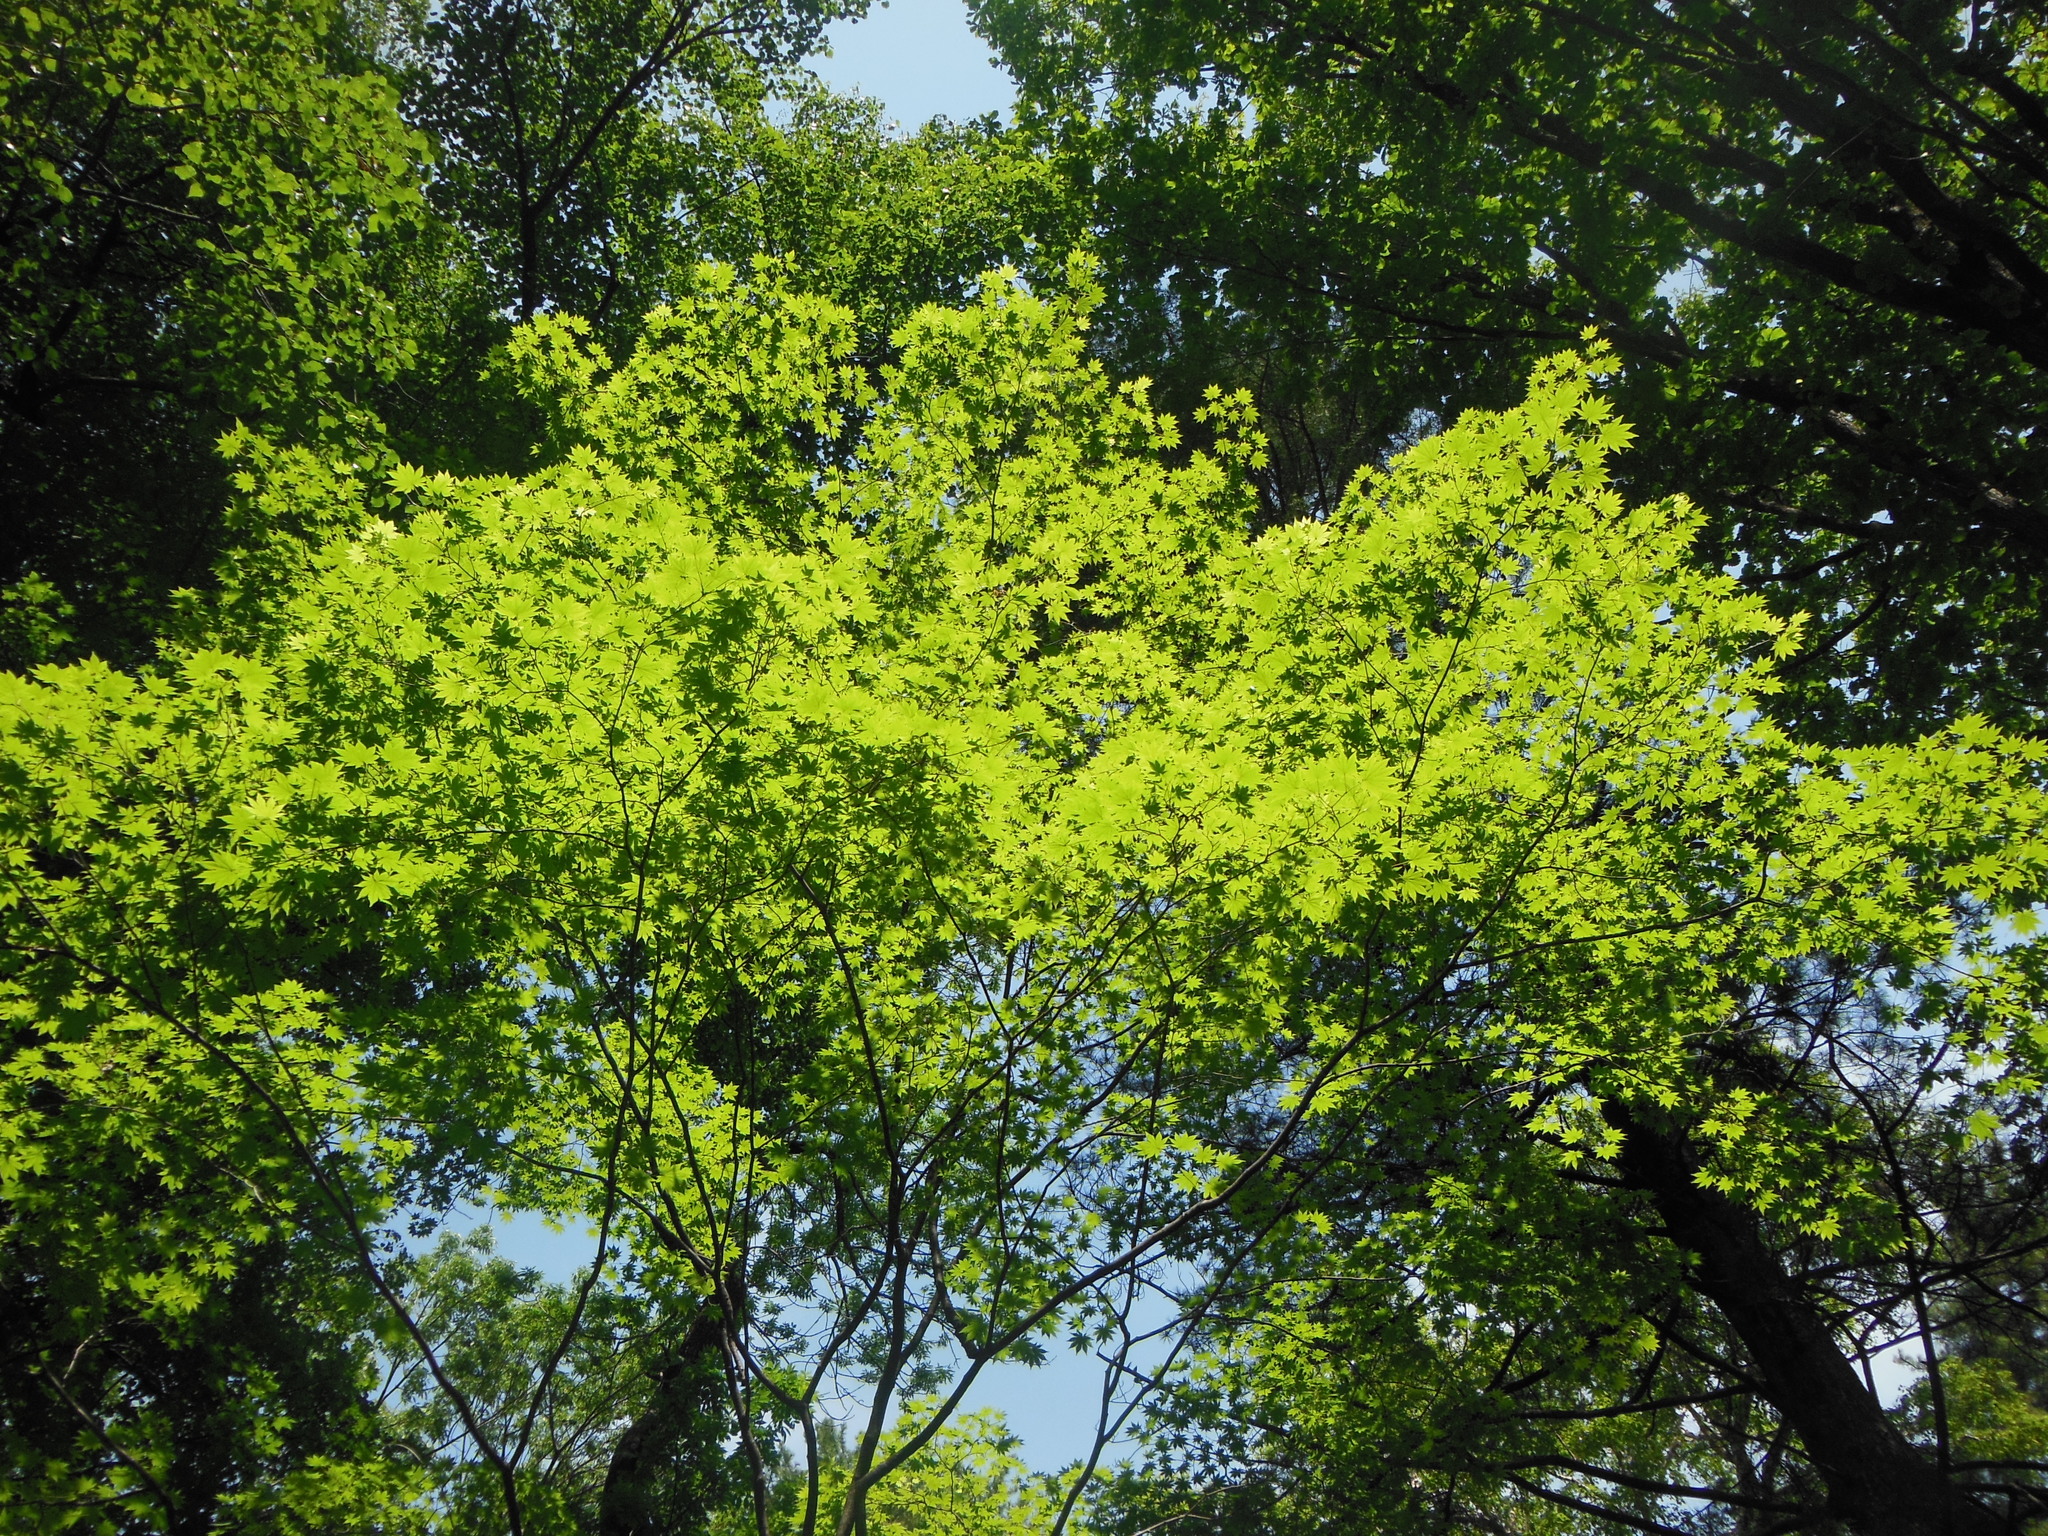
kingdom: Plantae
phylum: Tracheophyta
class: Magnoliopsida
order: Sapindales
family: Sapindaceae
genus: Acer
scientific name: Acer pseudosieboldianum
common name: Korean maple
